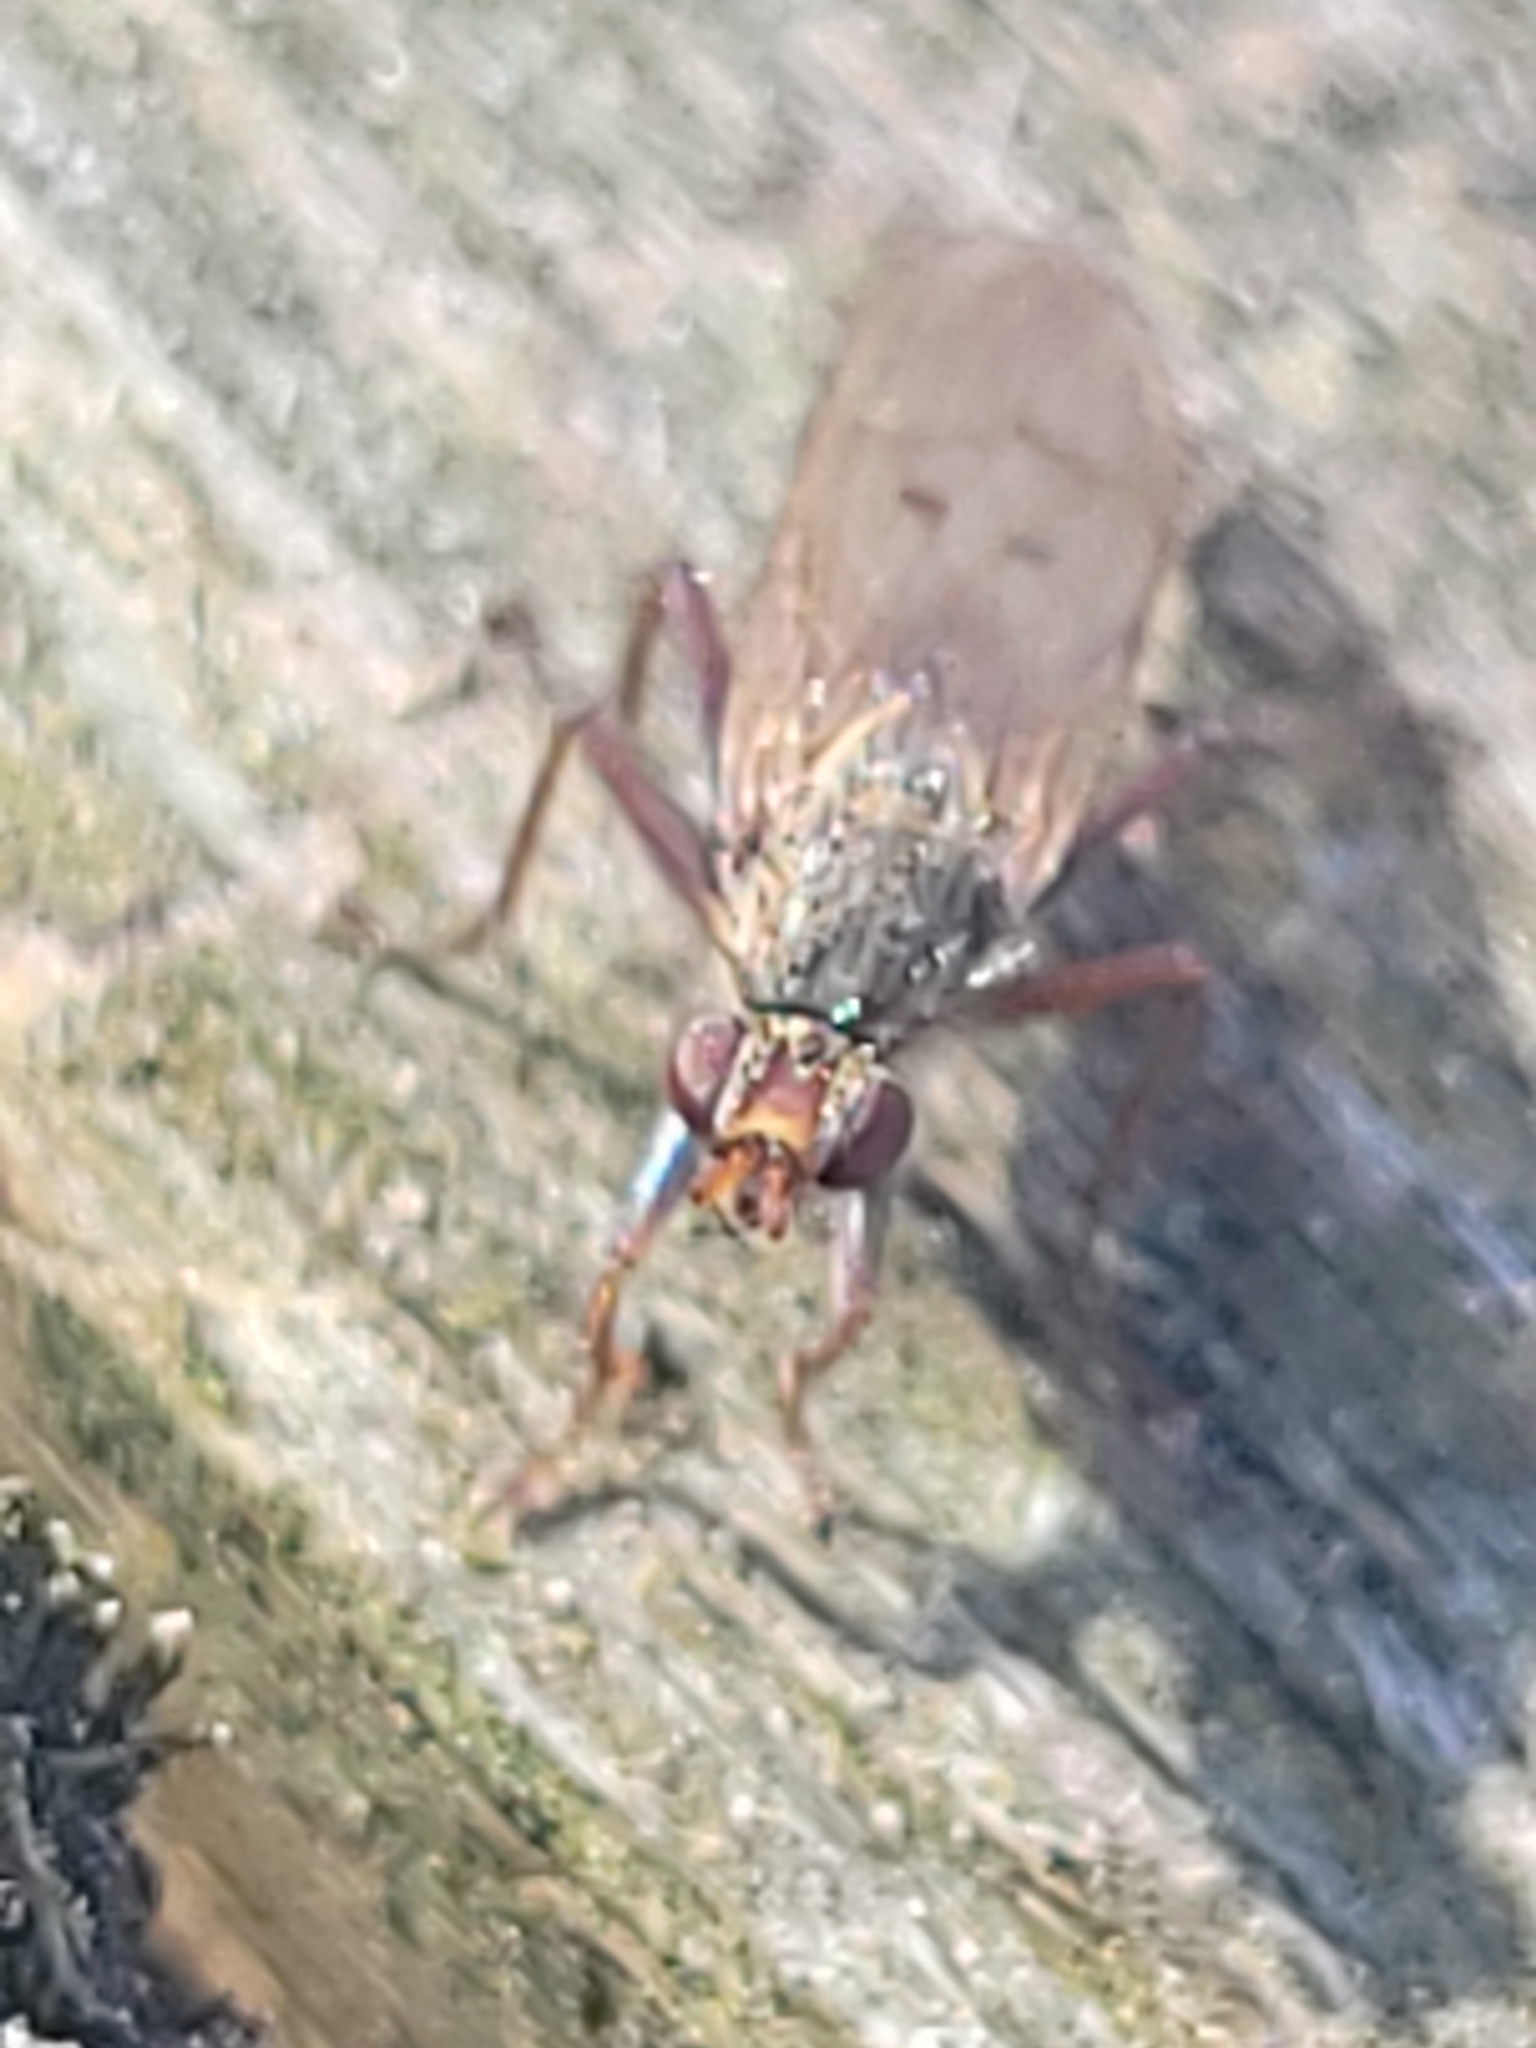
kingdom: Animalia
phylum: Arthropoda
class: Insecta
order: Diptera
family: Scathophagidae
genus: Scathophaga
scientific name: Scathophaga furcata
